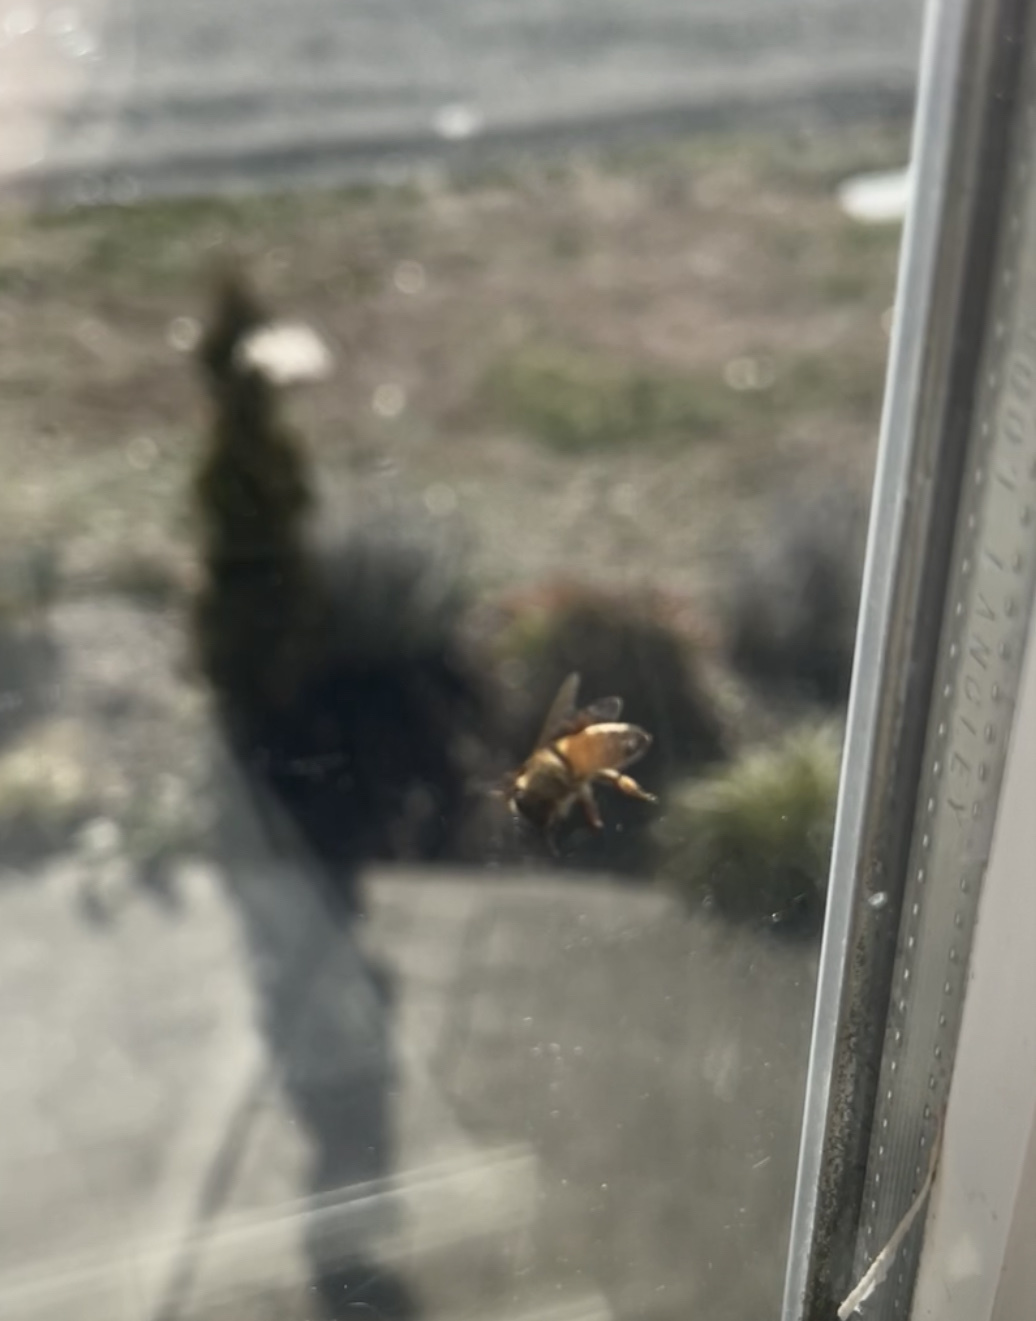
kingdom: Animalia
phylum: Arthropoda
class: Insecta
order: Hymenoptera
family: Apidae
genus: Apis
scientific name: Apis mellifera
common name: Honey bee
